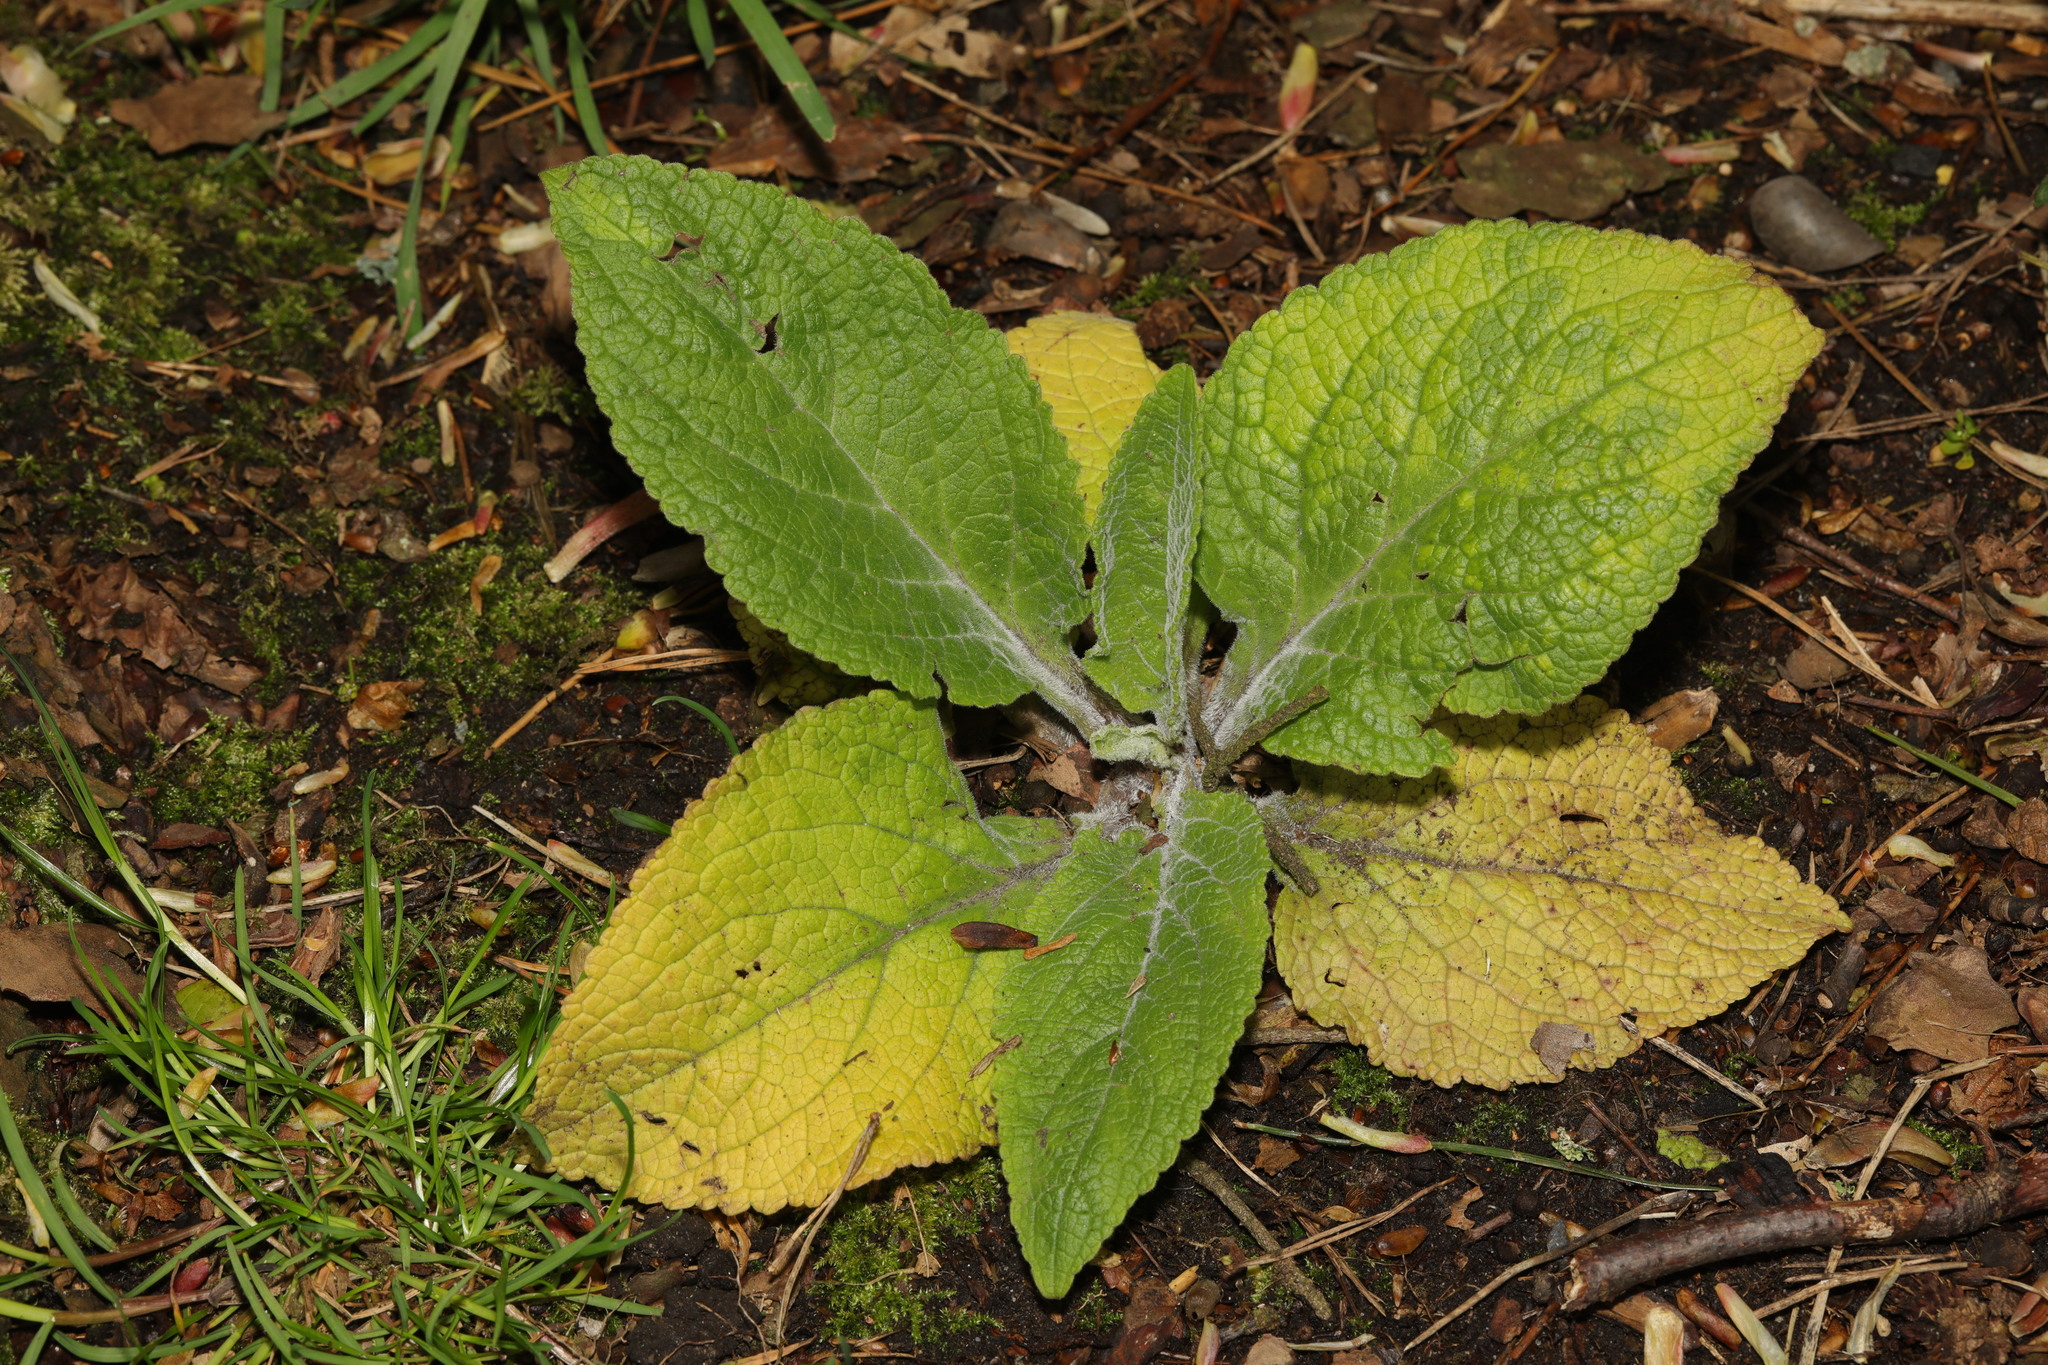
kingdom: Plantae
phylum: Tracheophyta
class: Magnoliopsida
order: Lamiales
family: Plantaginaceae
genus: Digitalis
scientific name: Digitalis purpurea
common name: Foxglove
